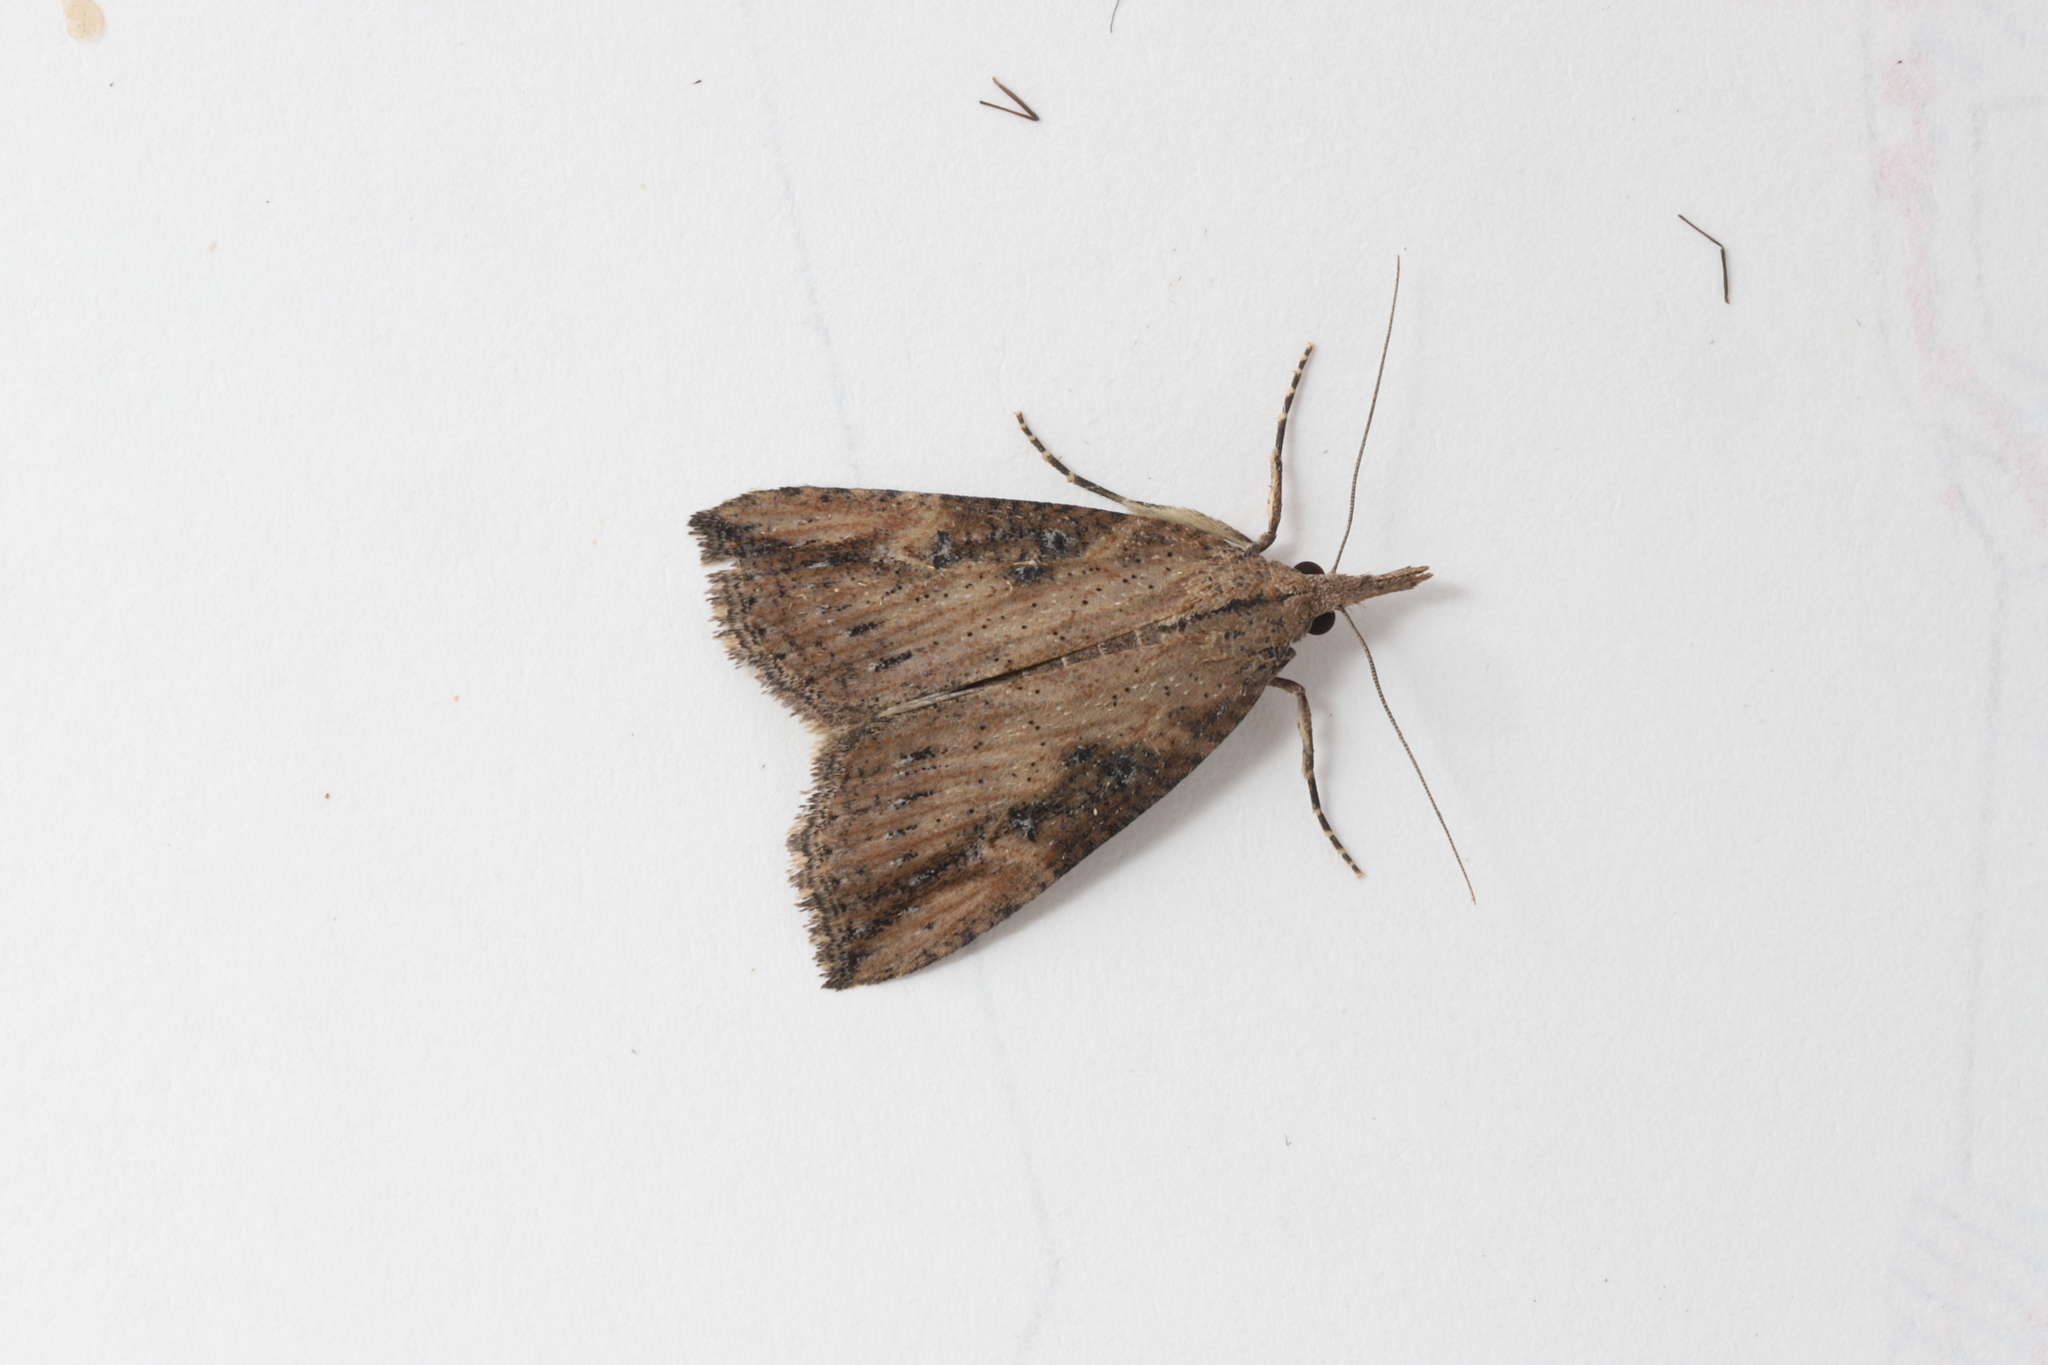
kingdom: Animalia
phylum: Arthropoda
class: Insecta
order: Lepidoptera
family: Erebidae
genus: Hypena
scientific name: Hypena humuli
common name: Hop vine snout
